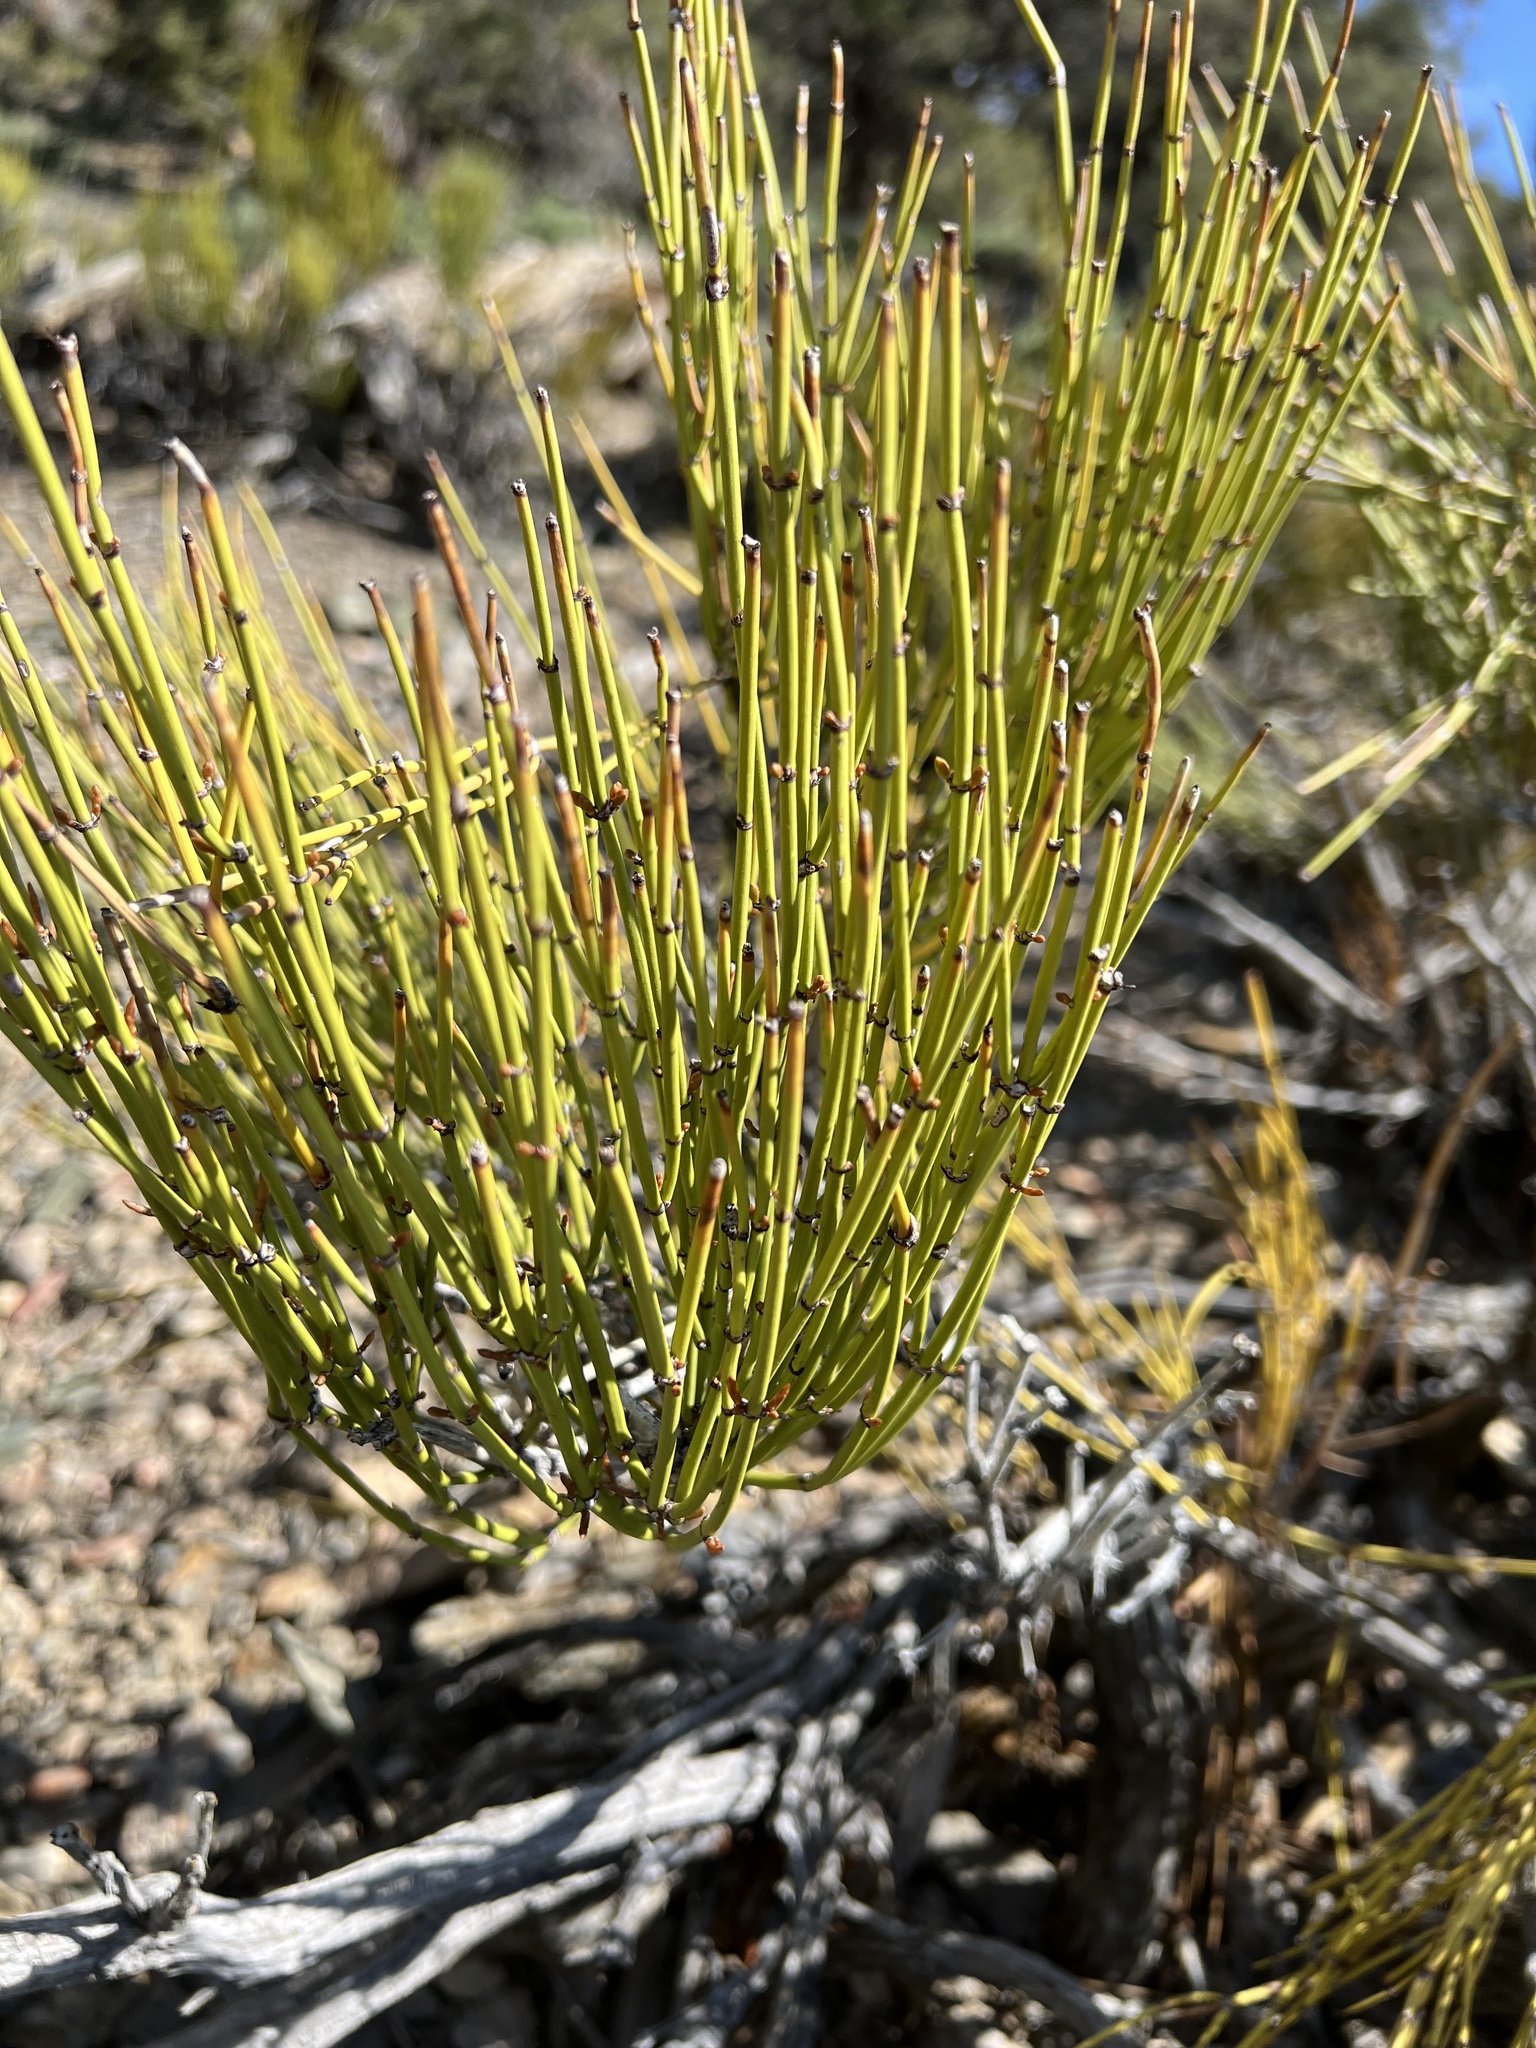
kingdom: Plantae
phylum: Tracheophyta
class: Gnetopsida
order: Ephedrales
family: Ephedraceae
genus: Ephedra
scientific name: Ephedra viridis
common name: Green ephedra
